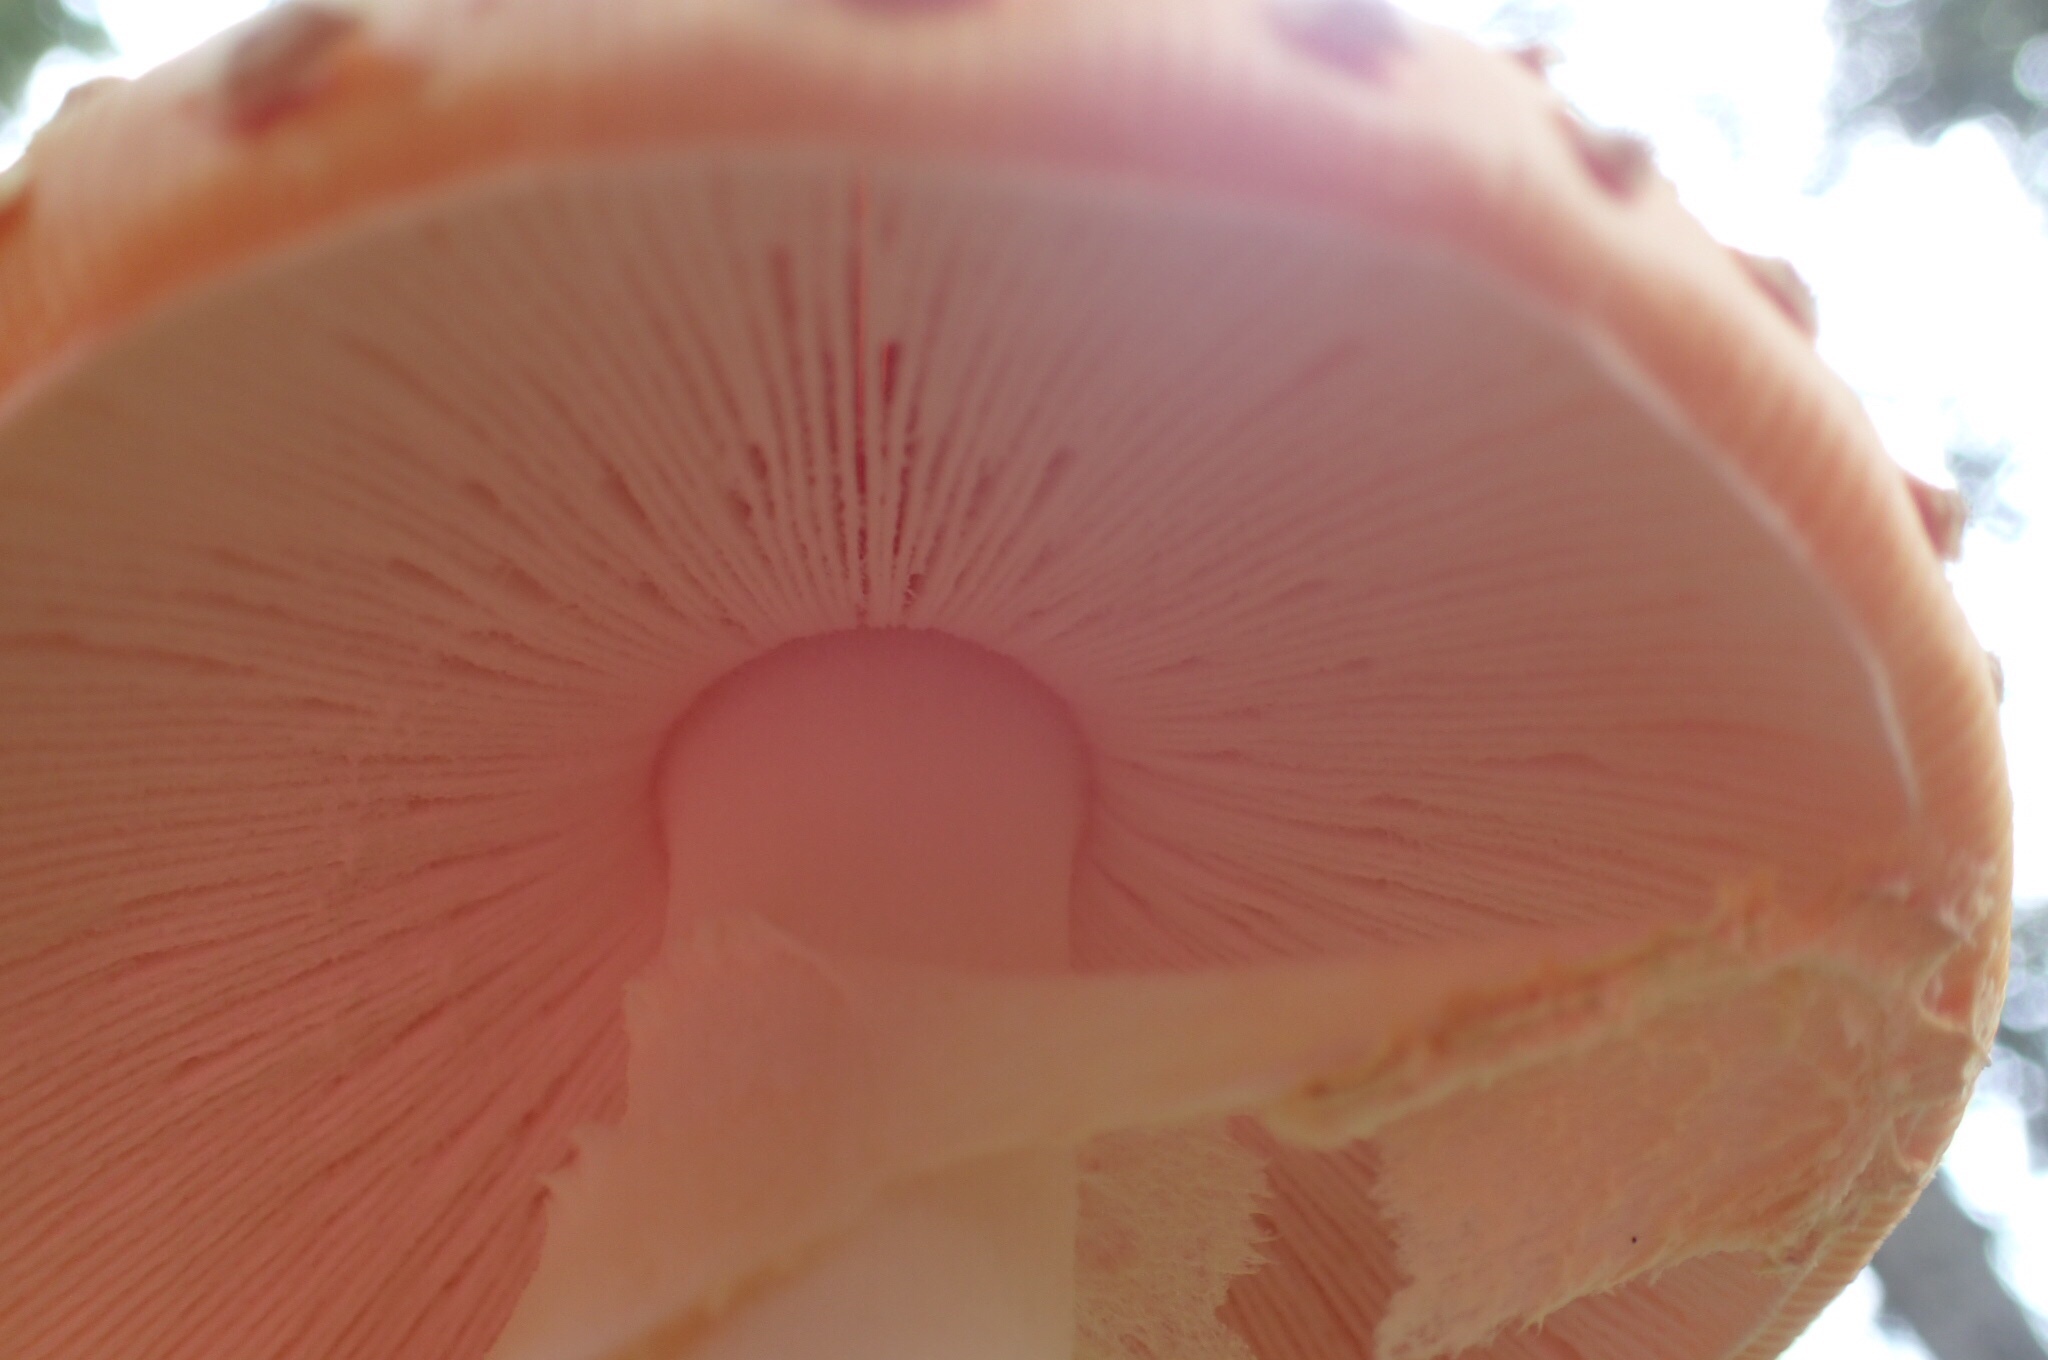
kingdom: Fungi
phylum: Basidiomycota
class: Agaricomycetes
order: Agaricales
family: Amanitaceae
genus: Amanita
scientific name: Amanita muscaria
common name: Fly agaric
